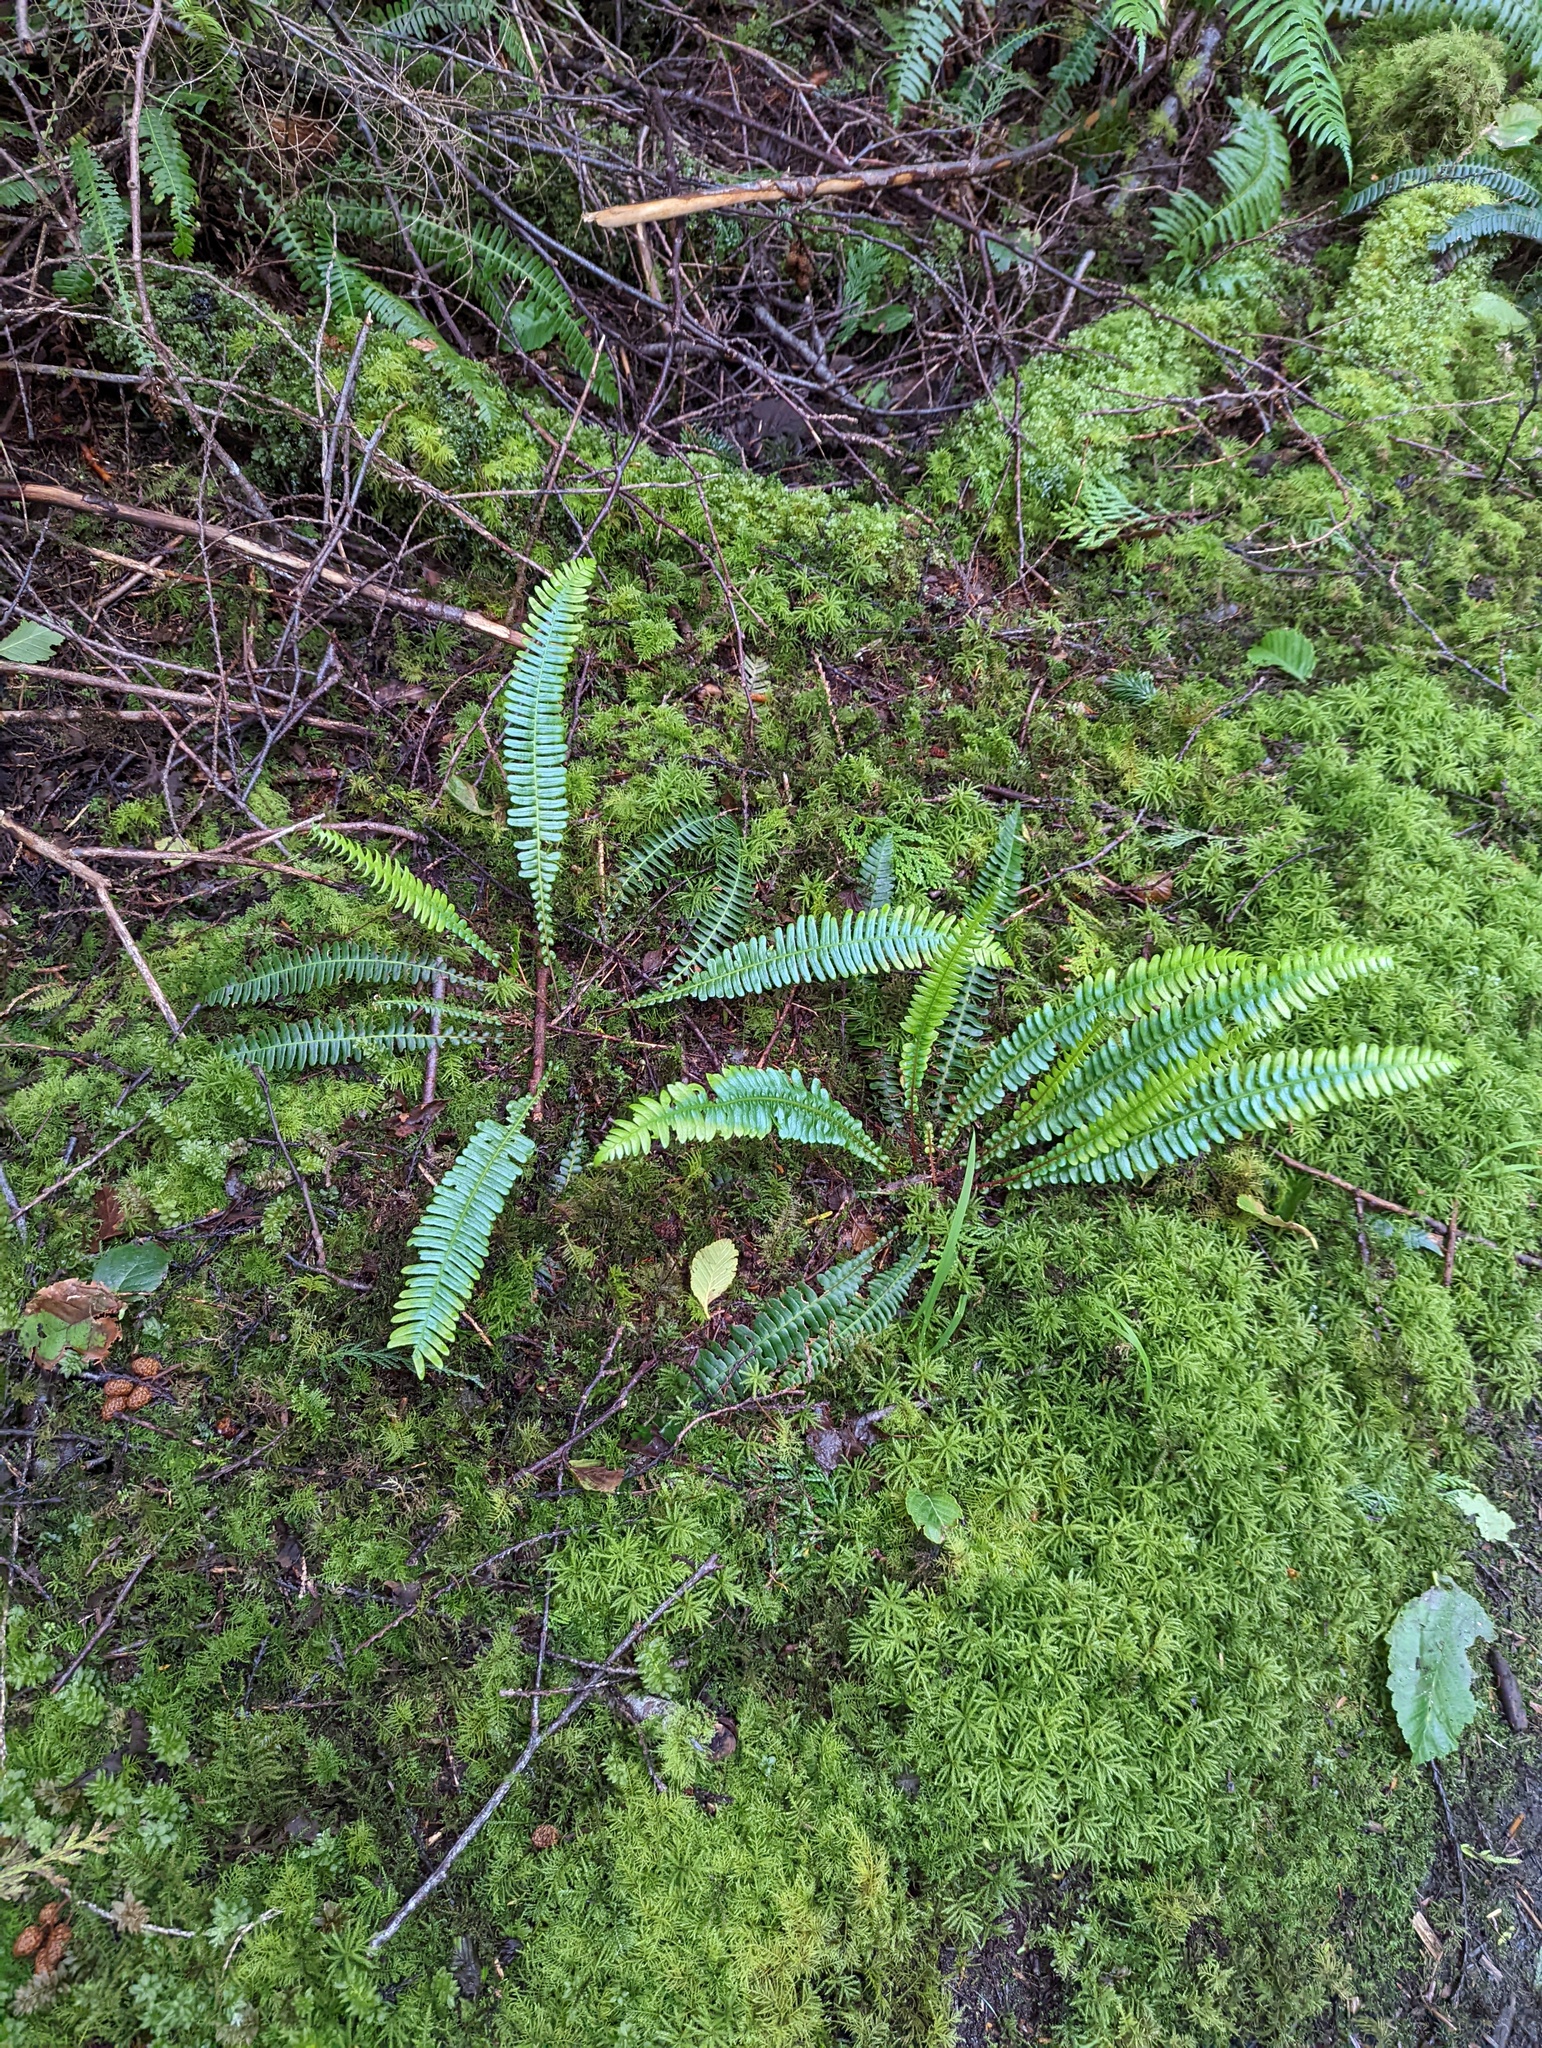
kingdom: Plantae
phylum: Tracheophyta
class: Polypodiopsida
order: Polypodiales
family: Blechnaceae
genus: Struthiopteris
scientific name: Struthiopteris spicant
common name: Deer fern
